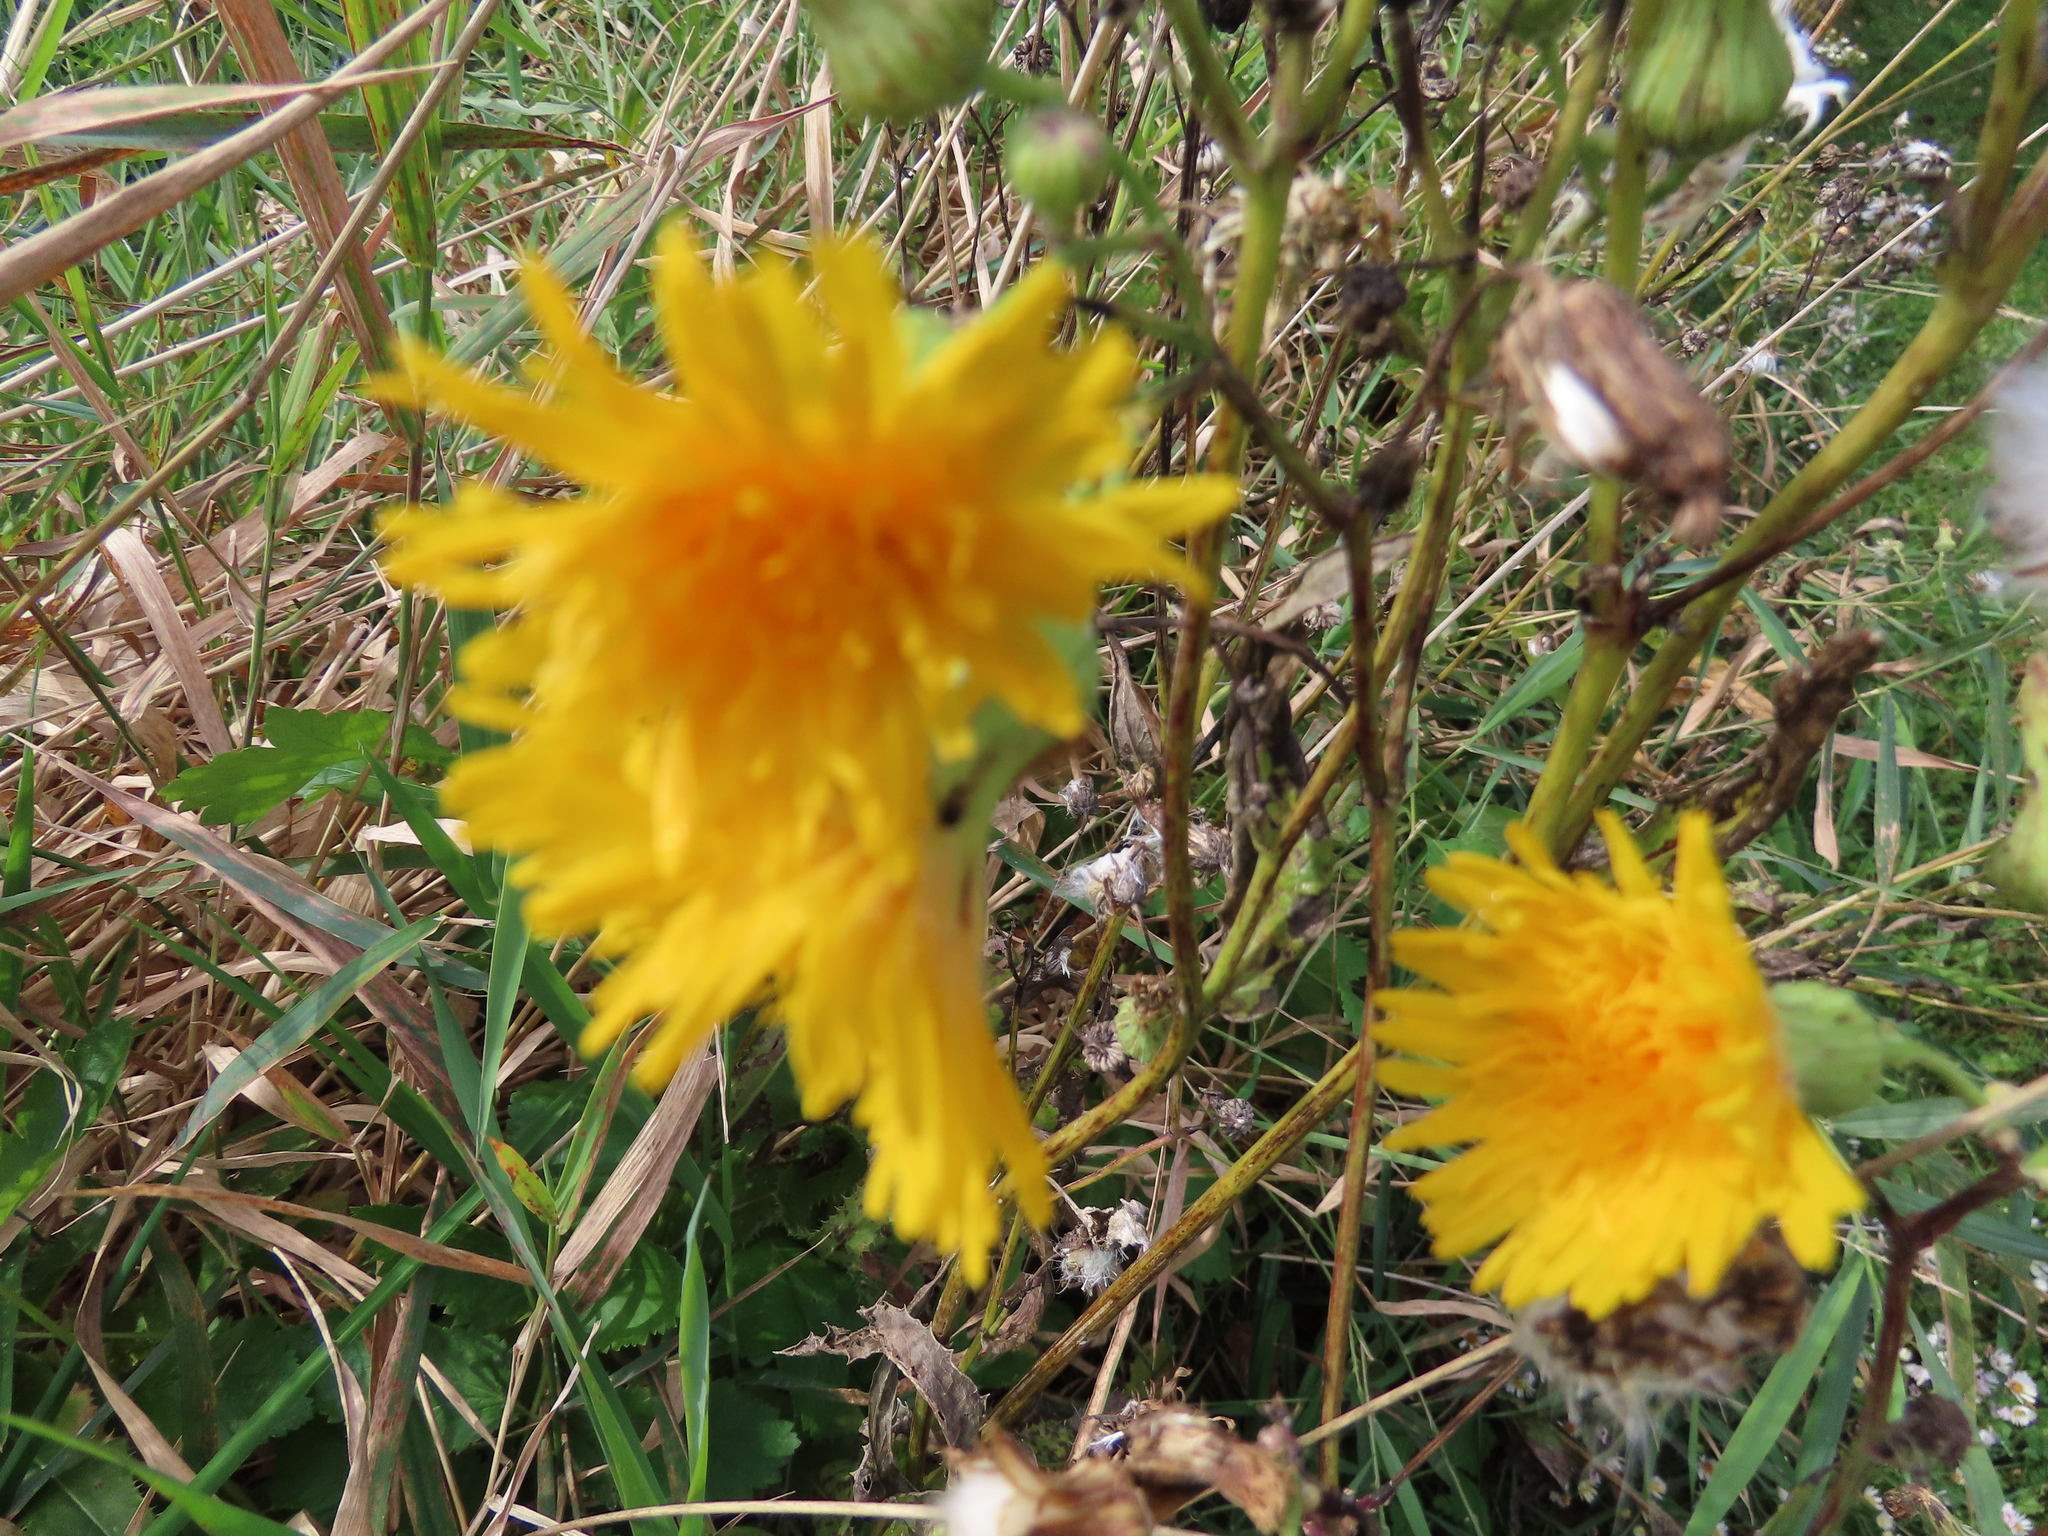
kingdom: Plantae
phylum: Tracheophyta
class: Magnoliopsida
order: Asterales
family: Asteraceae
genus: Sonchus
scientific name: Sonchus arvensis
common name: Perennial sow-thistle
